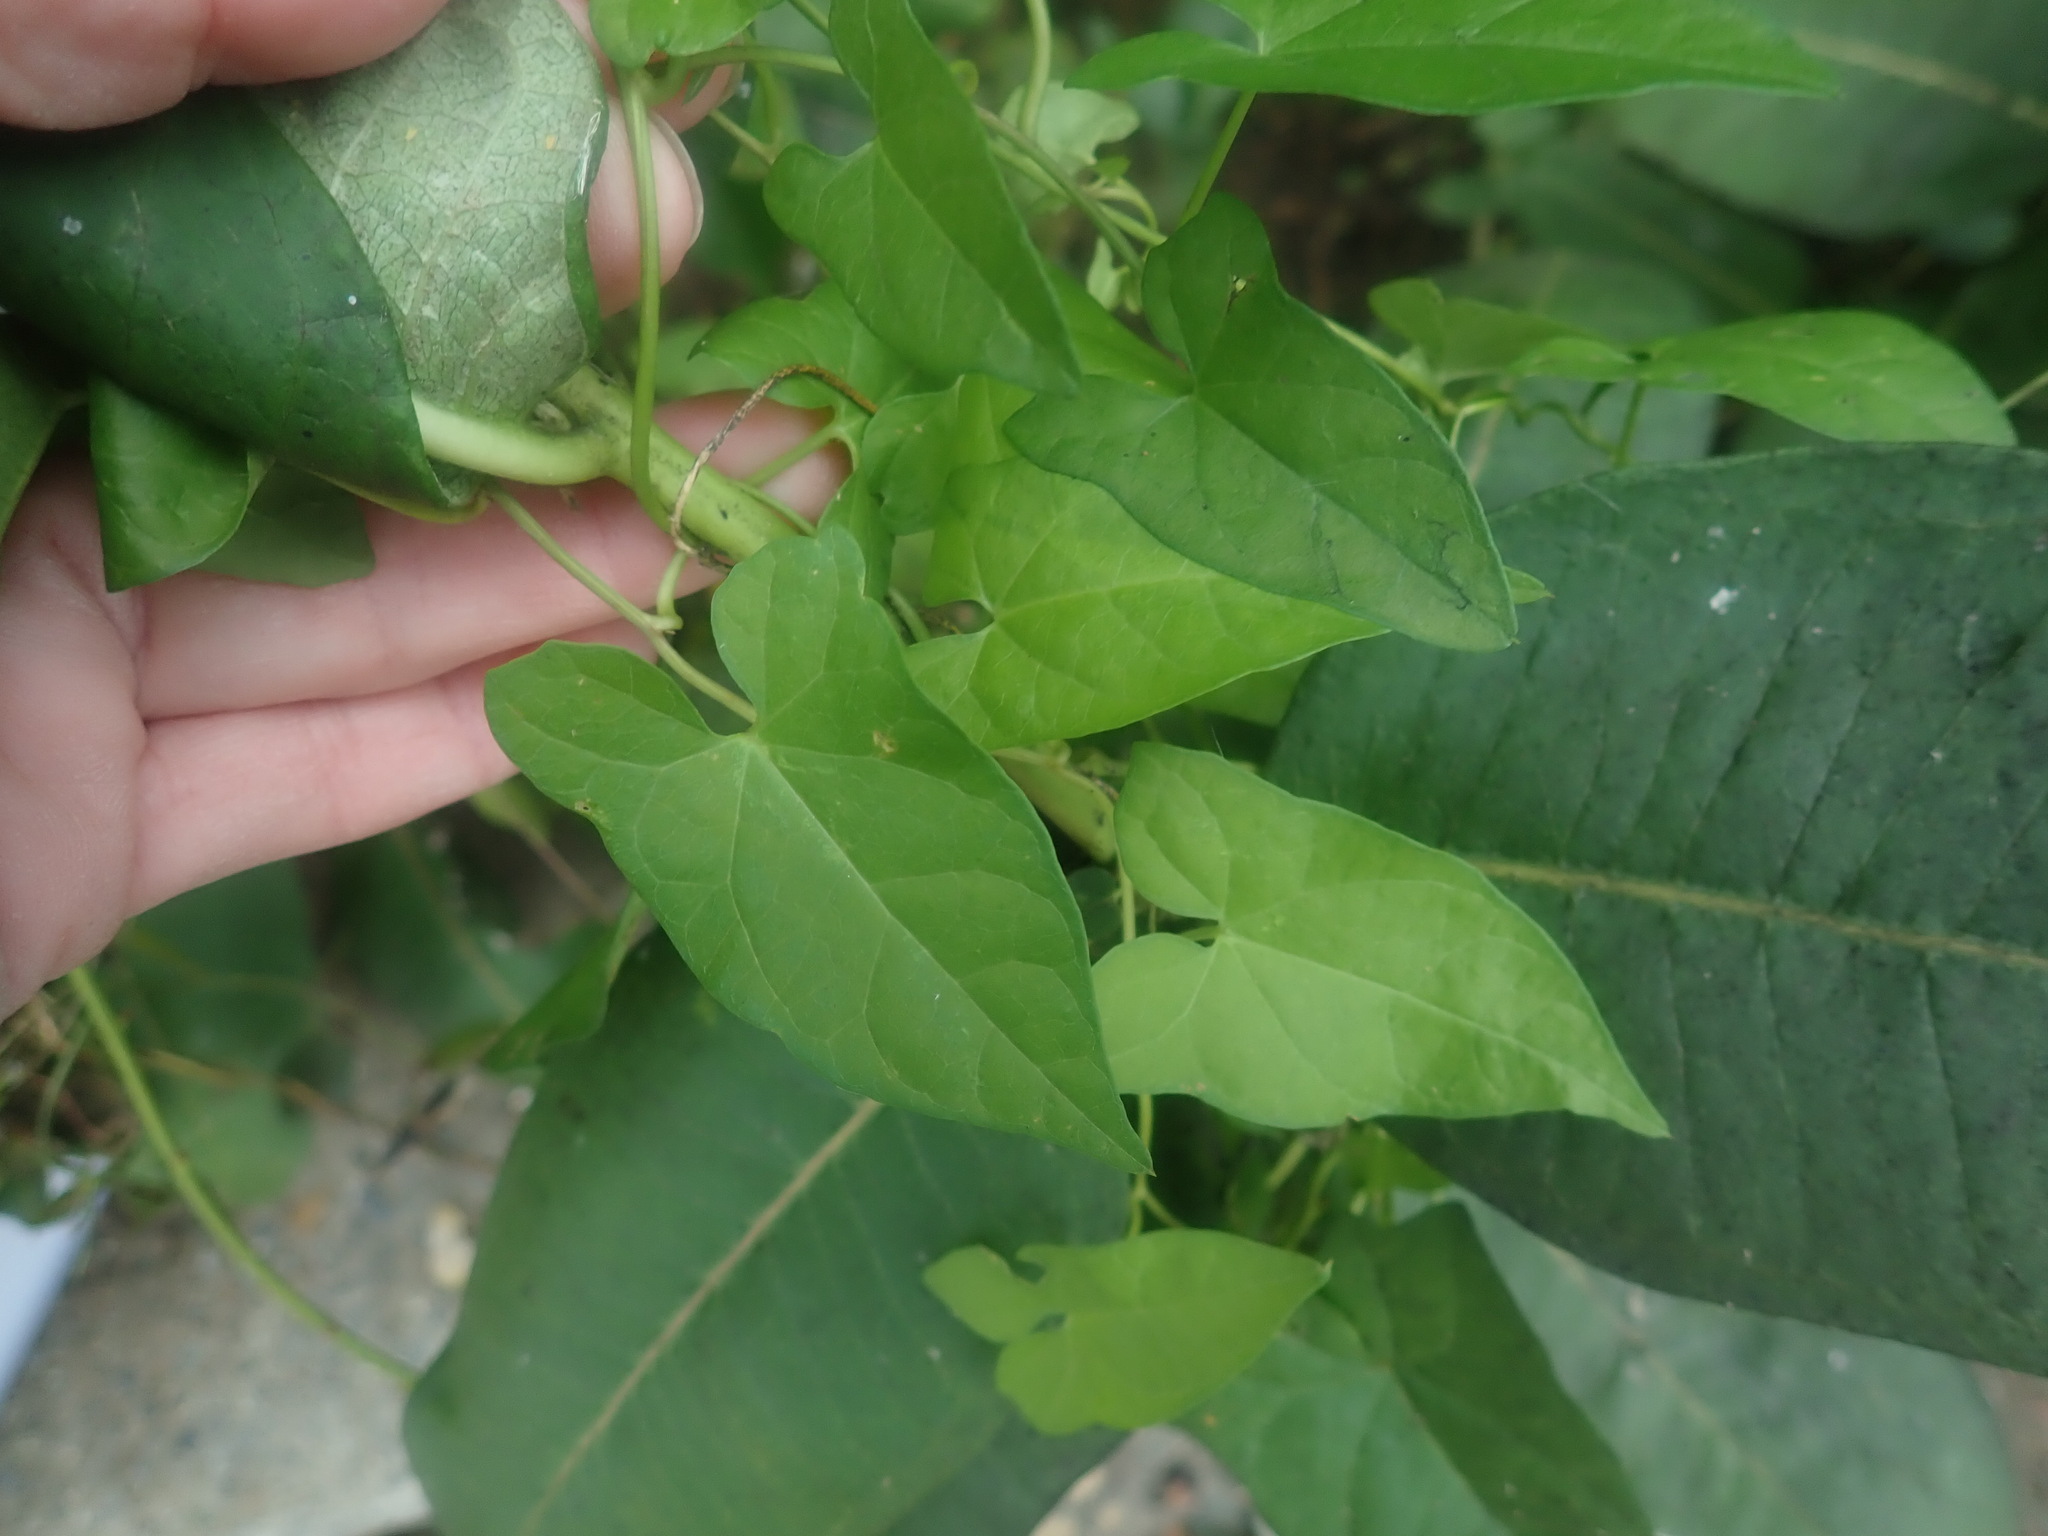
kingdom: Plantae
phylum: Tracheophyta
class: Magnoliopsida
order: Solanales
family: Convolvulaceae
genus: Calystegia
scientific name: Calystegia sepium
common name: Hedge bindweed
